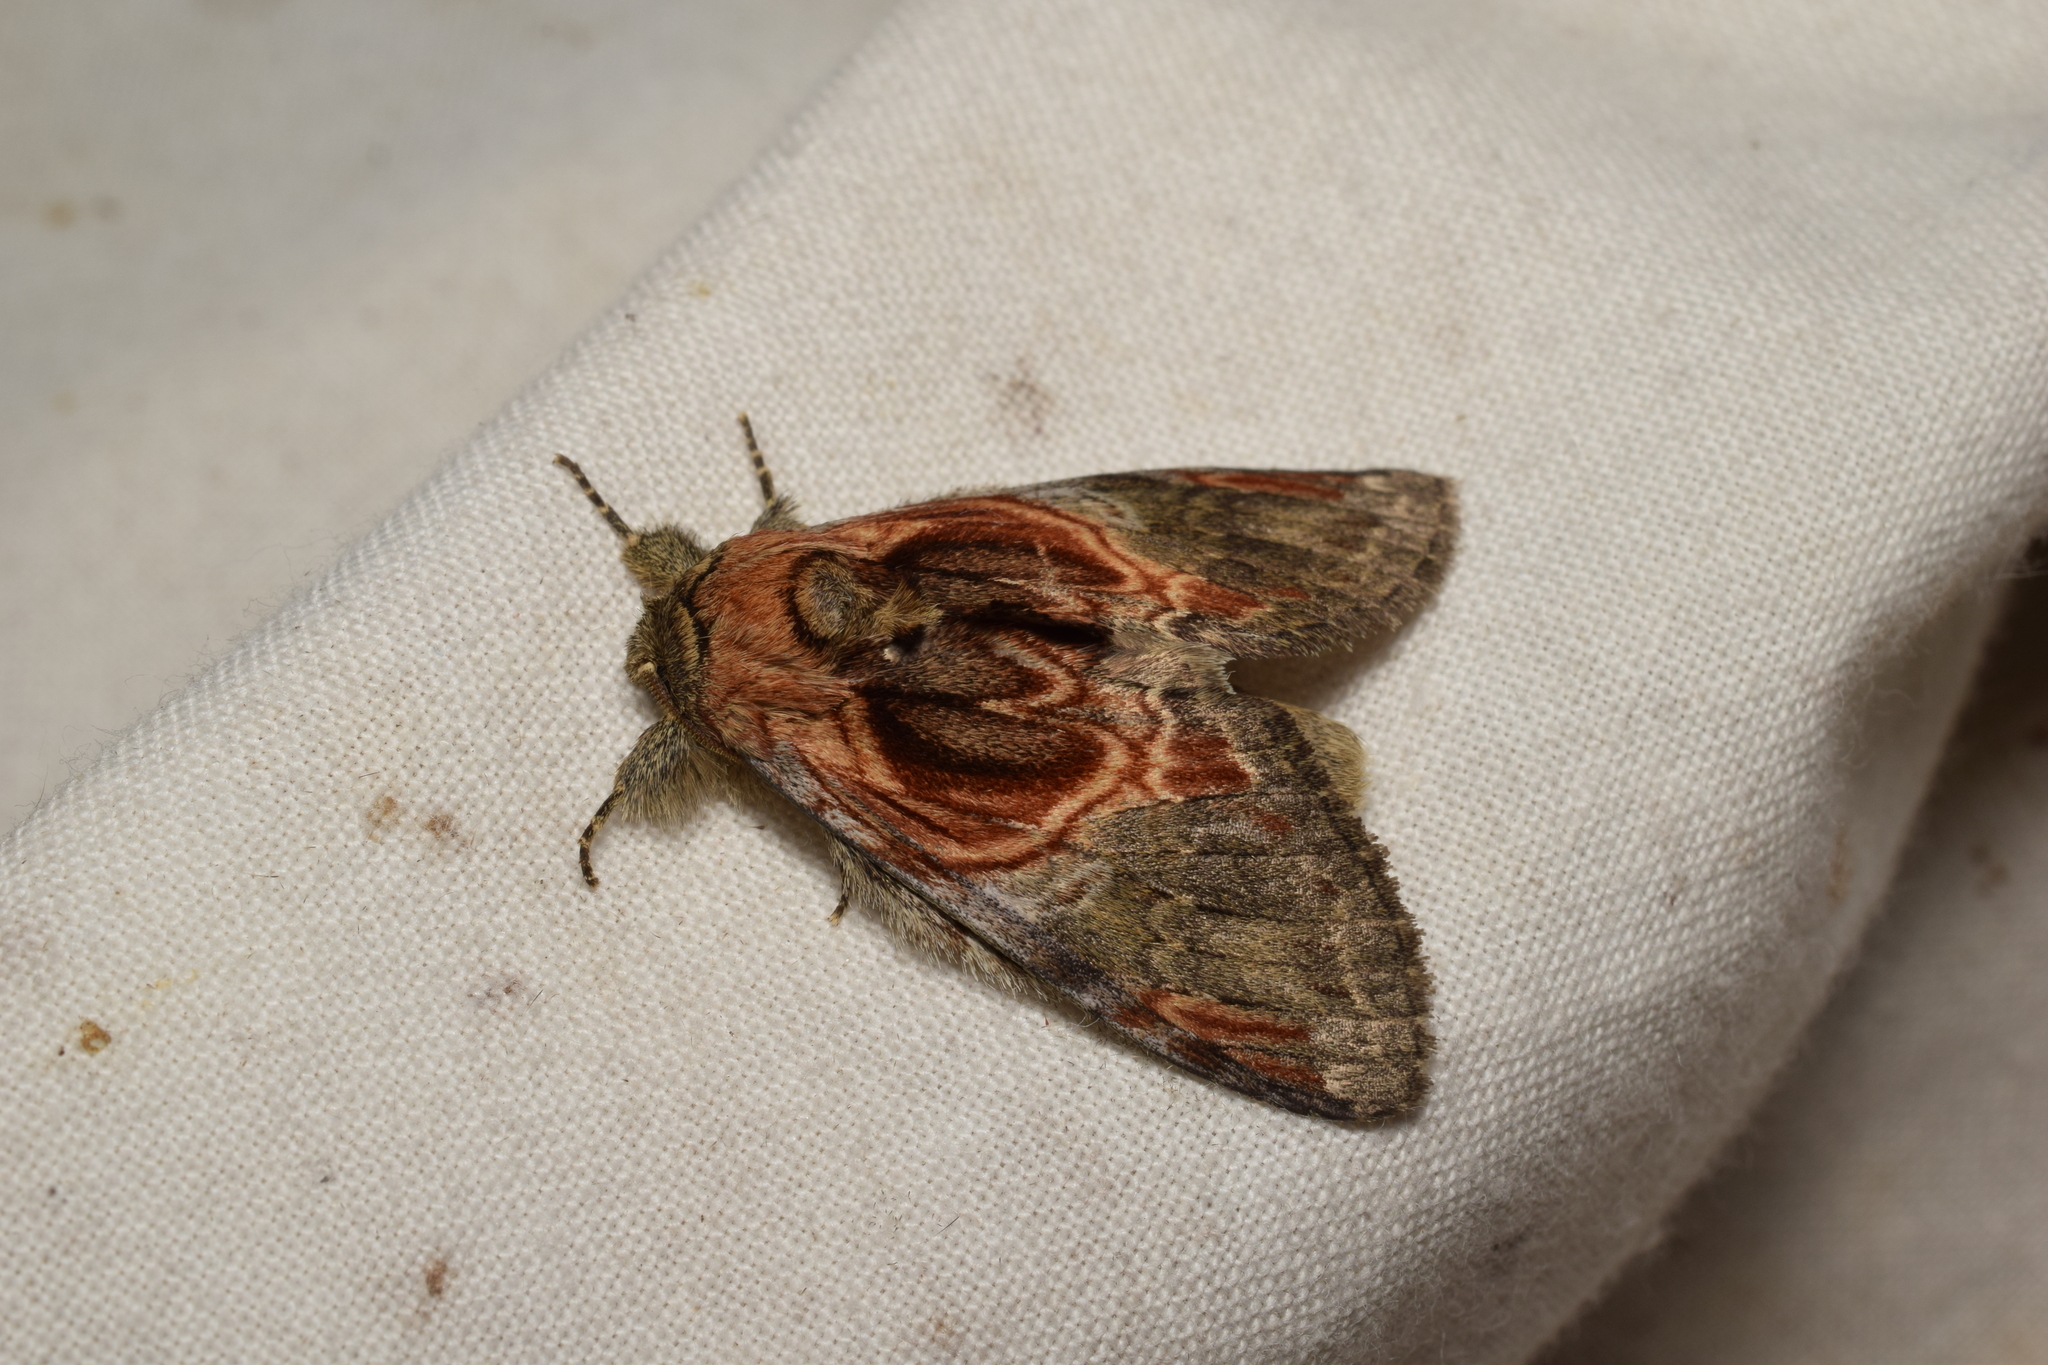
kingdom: Animalia
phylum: Arthropoda
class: Insecta
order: Lepidoptera
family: Notodontidae
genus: Peridea
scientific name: Peridea aliena
